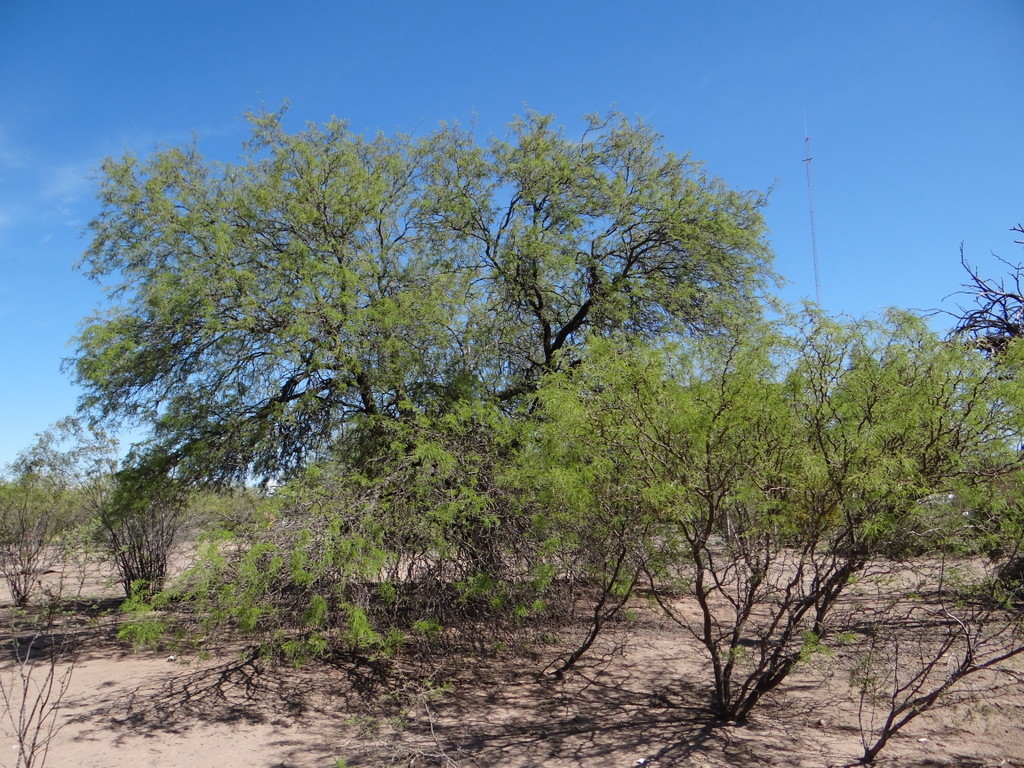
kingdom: Plantae
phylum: Tracheophyta
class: Magnoliopsida
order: Fabales
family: Fabaceae
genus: Prosopis
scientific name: Prosopis flexuosa
